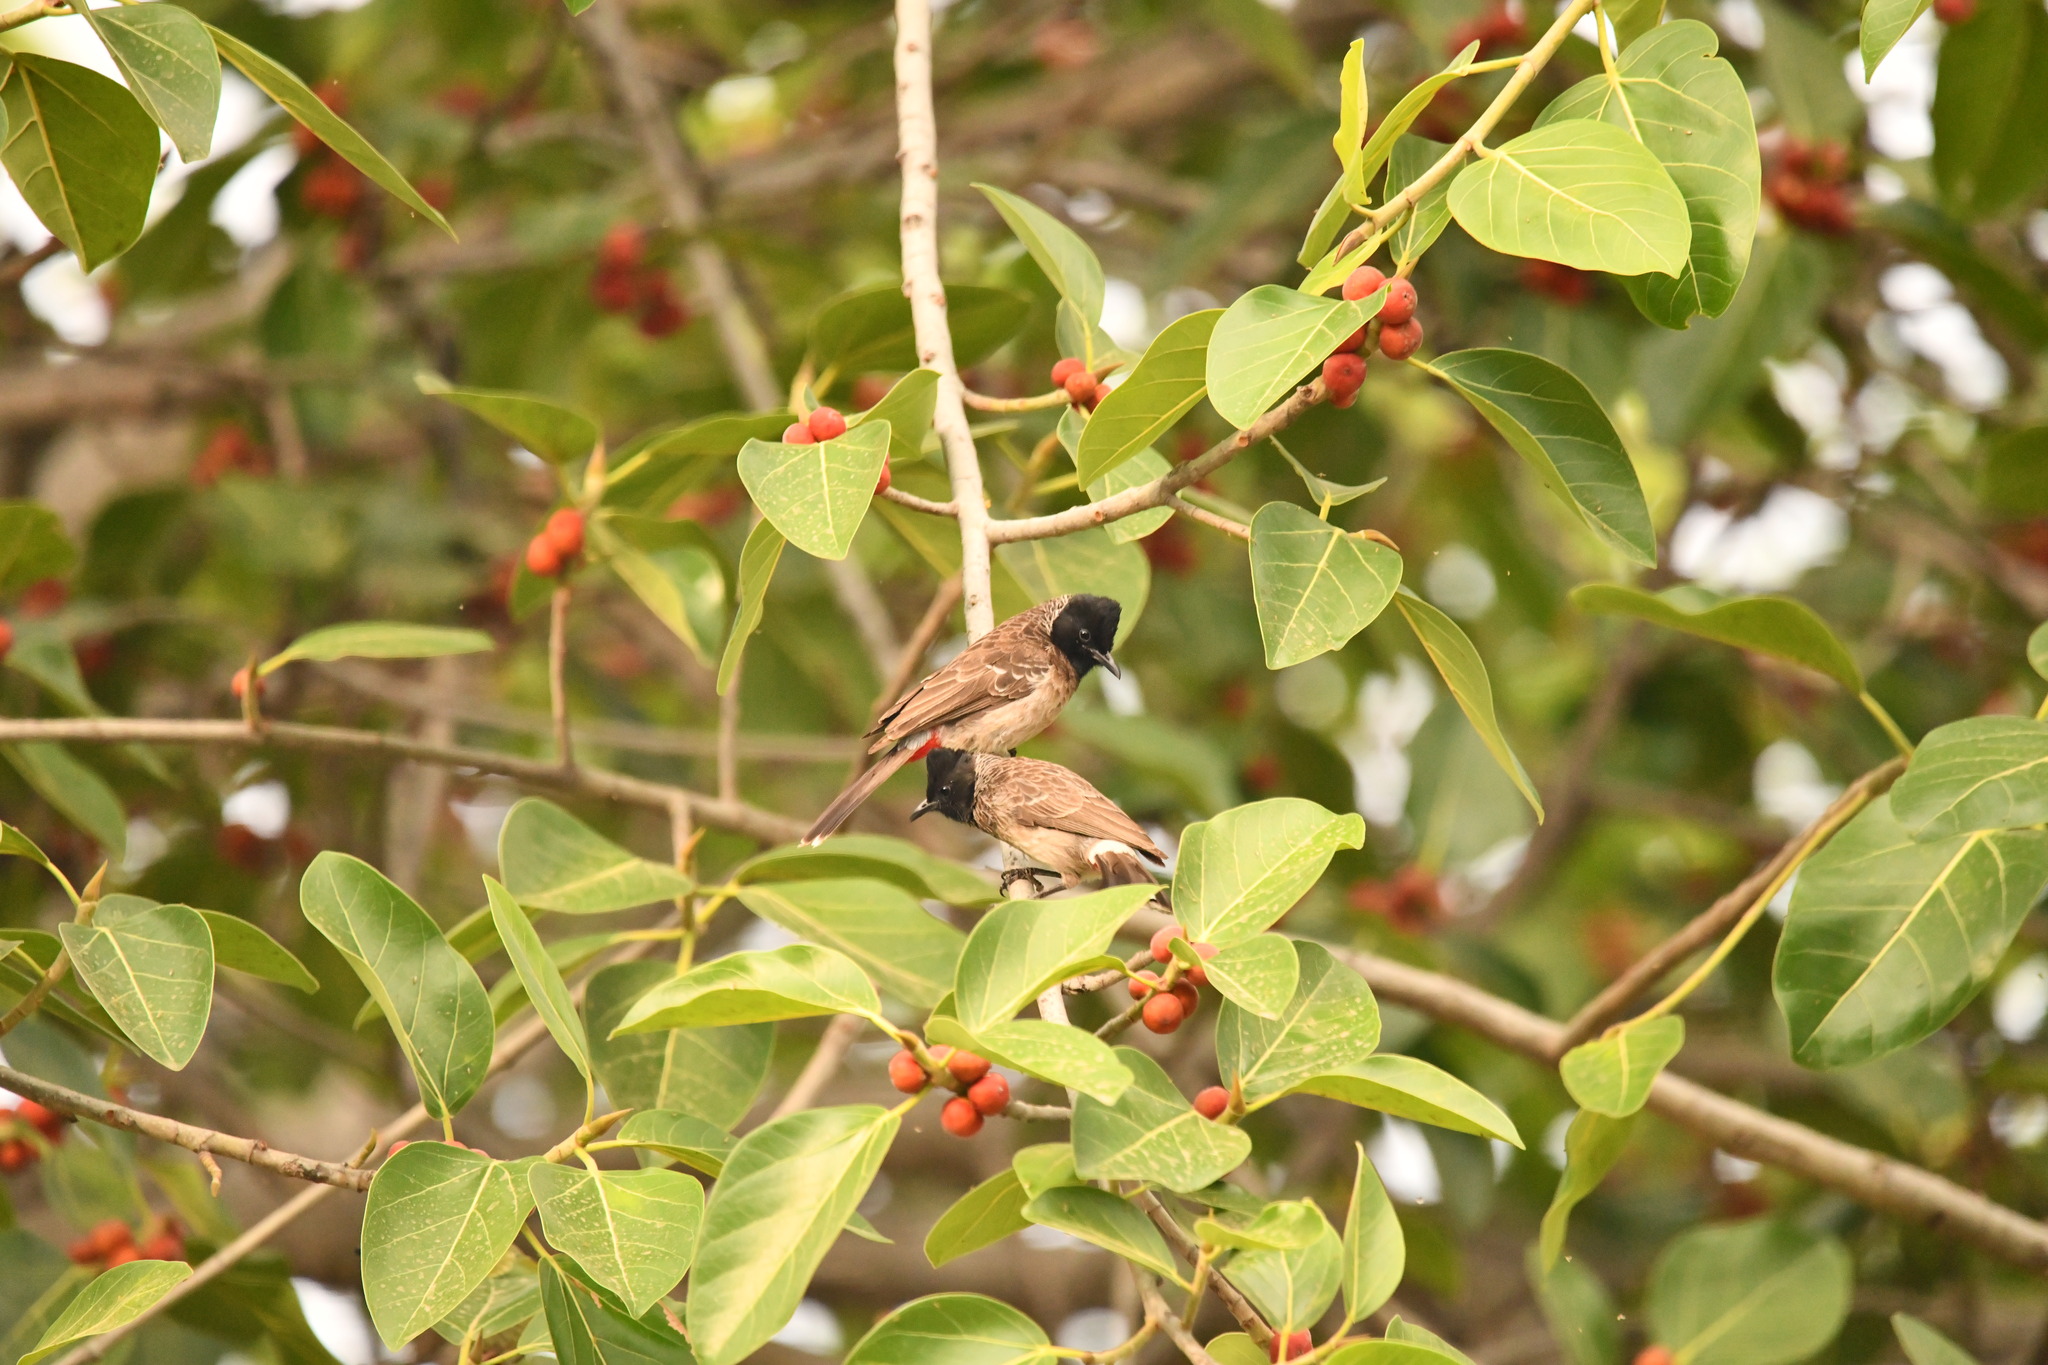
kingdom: Animalia
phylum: Chordata
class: Aves
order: Passeriformes
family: Pycnonotidae
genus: Pycnonotus
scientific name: Pycnonotus cafer
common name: Red-vented bulbul
